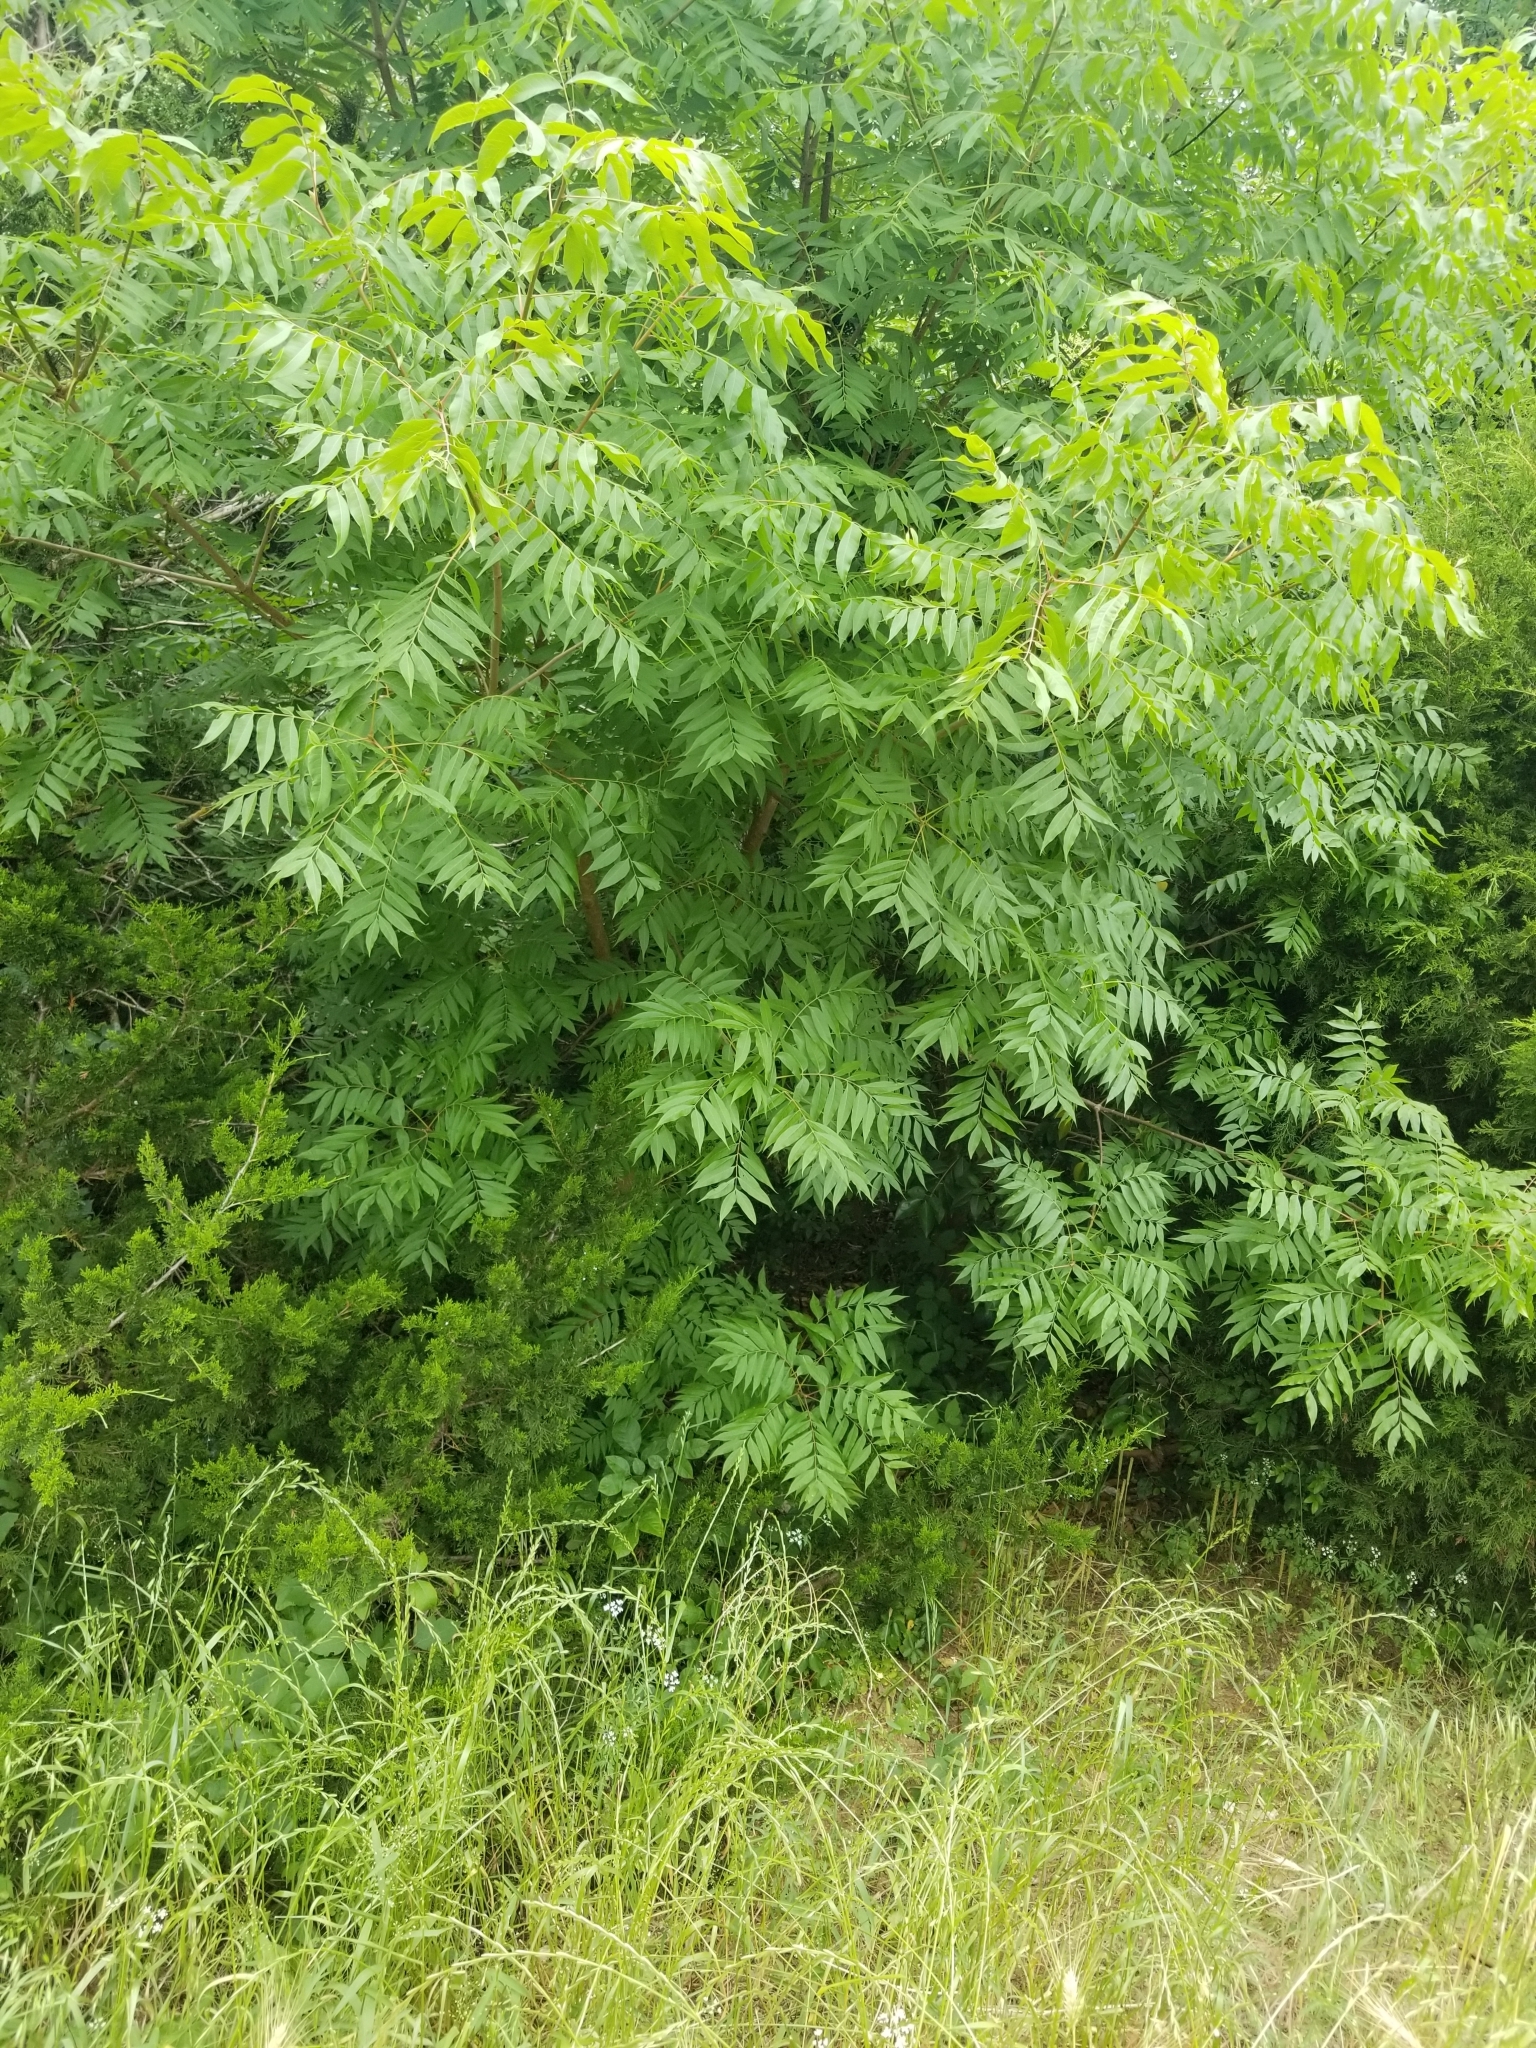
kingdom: Plantae
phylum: Tracheophyta
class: Magnoliopsida
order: Sapindales
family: Anacardiaceae
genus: Pistacia
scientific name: Pistacia chinensis
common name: Chinese pistache
